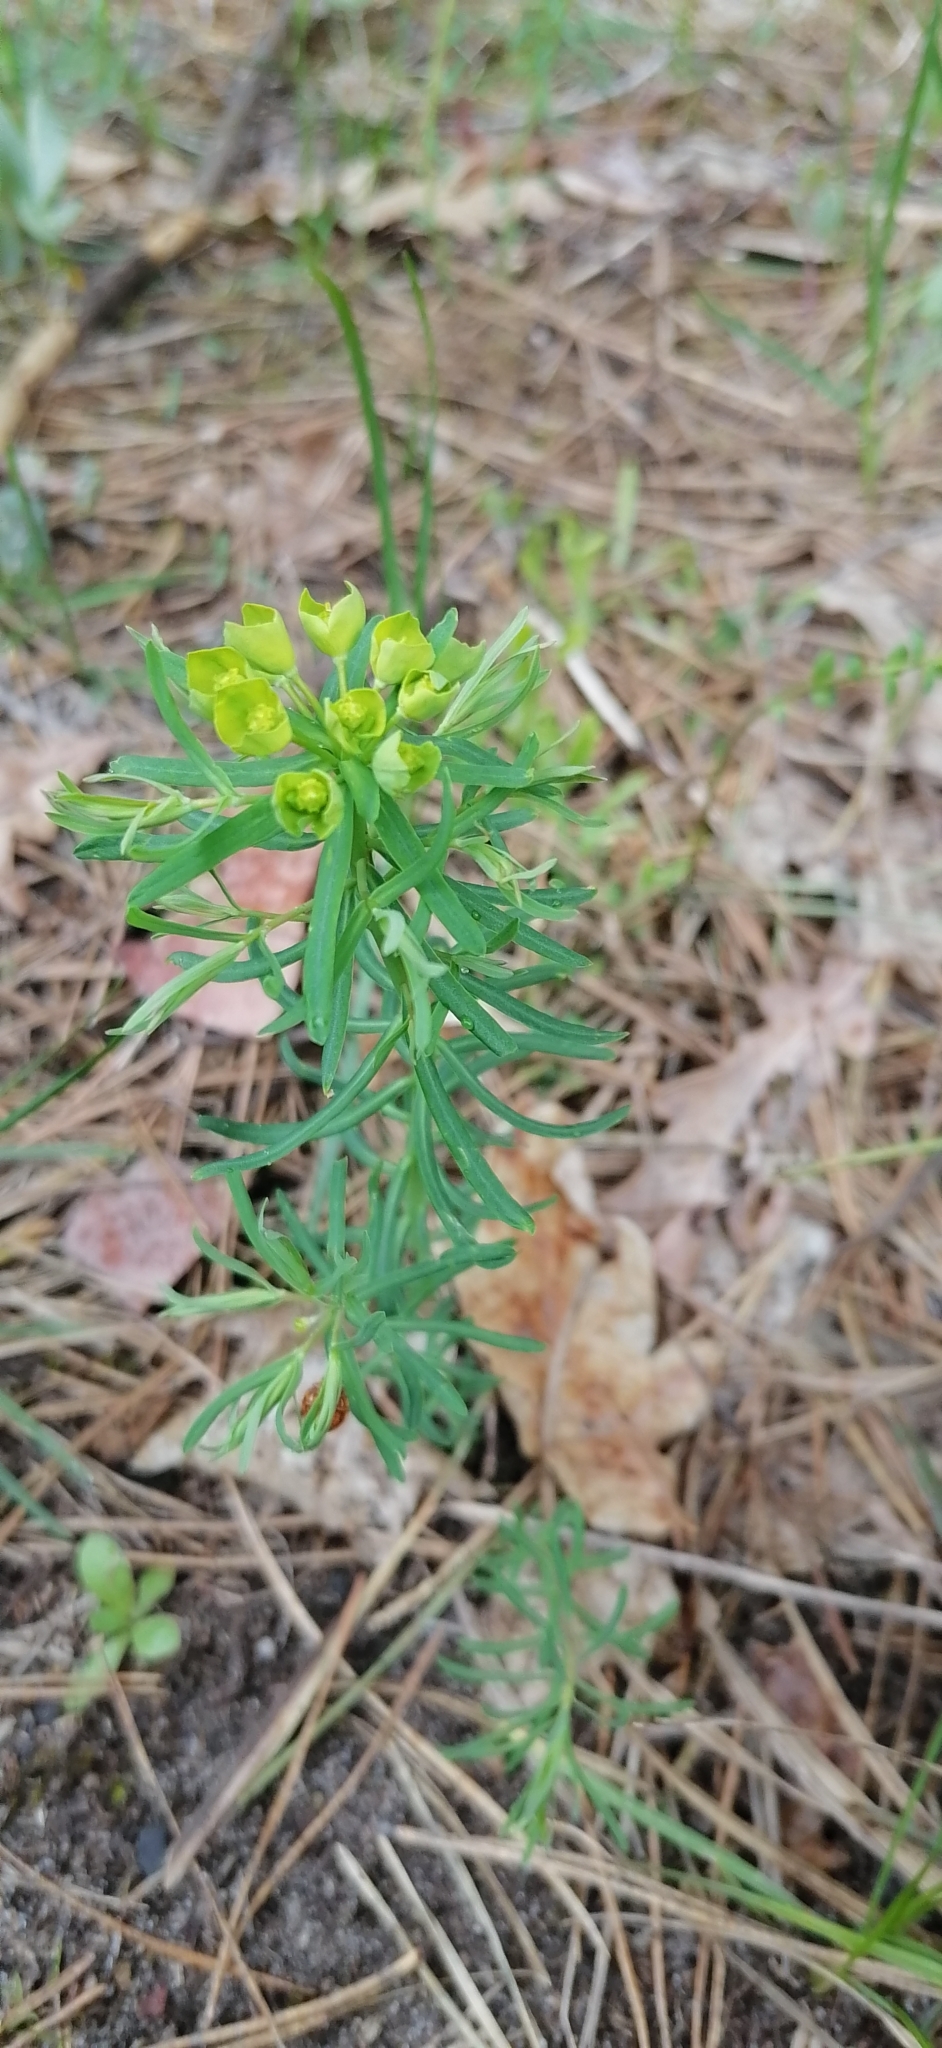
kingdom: Plantae
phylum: Tracheophyta
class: Magnoliopsida
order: Malpighiales
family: Euphorbiaceae
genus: Euphorbia
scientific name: Euphorbia cyparissias
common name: Cypress spurge
